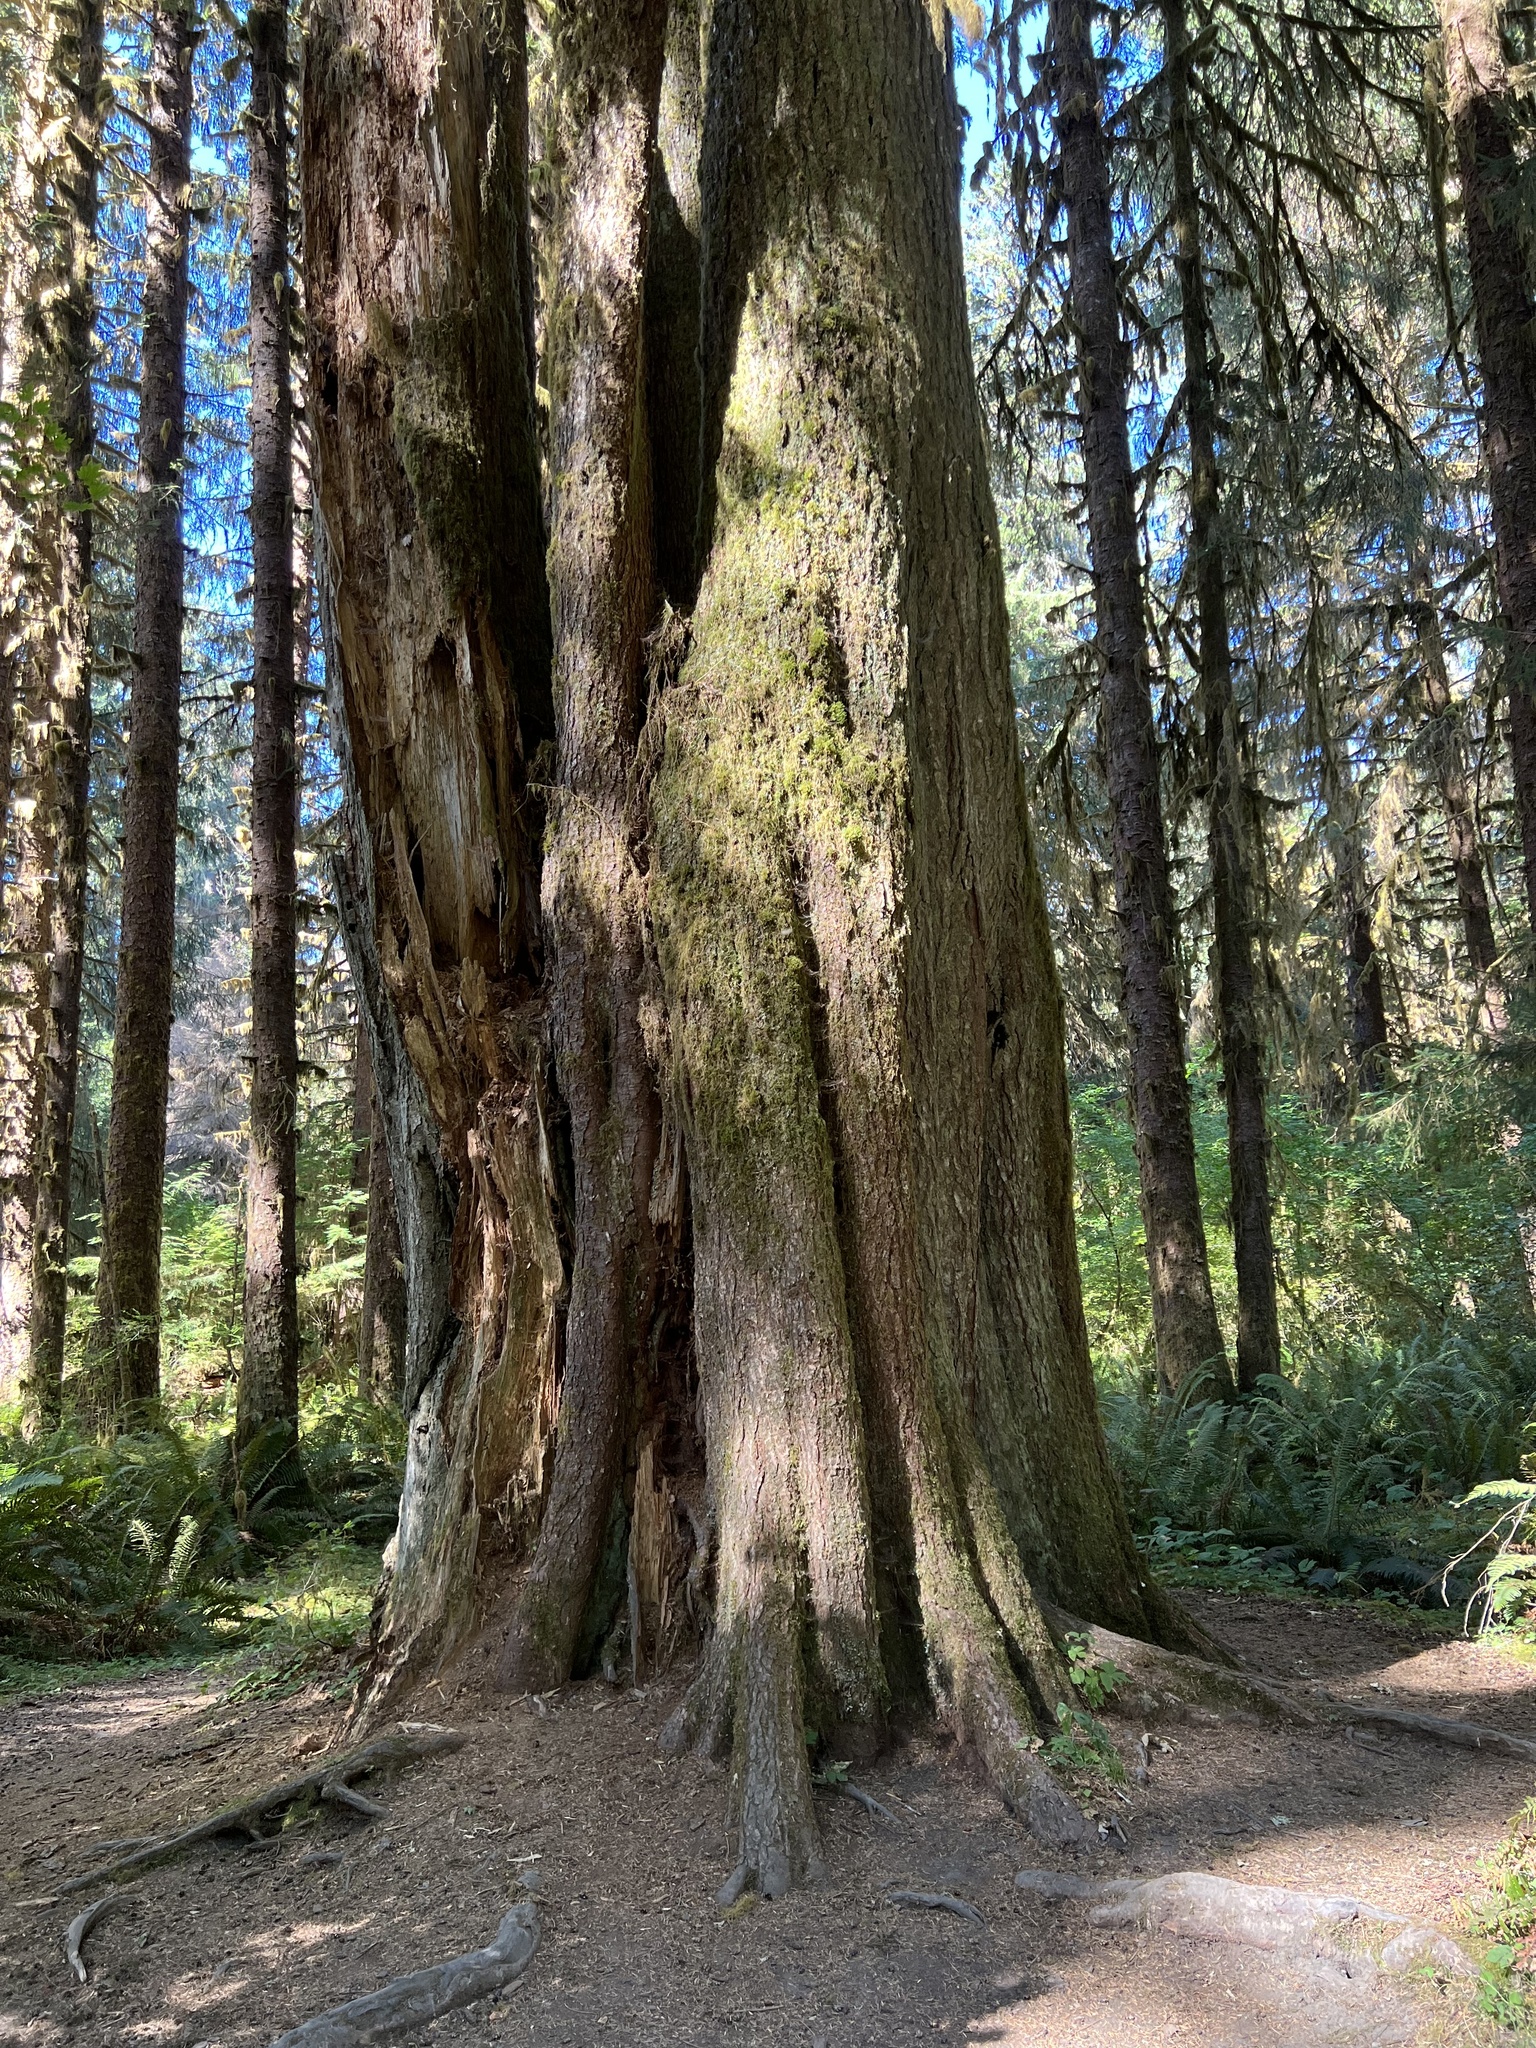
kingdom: Plantae
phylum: Tracheophyta
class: Pinopsida
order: Pinales
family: Pinaceae
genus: Tsuga
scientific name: Tsuga heterophylla
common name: Western hemlock
